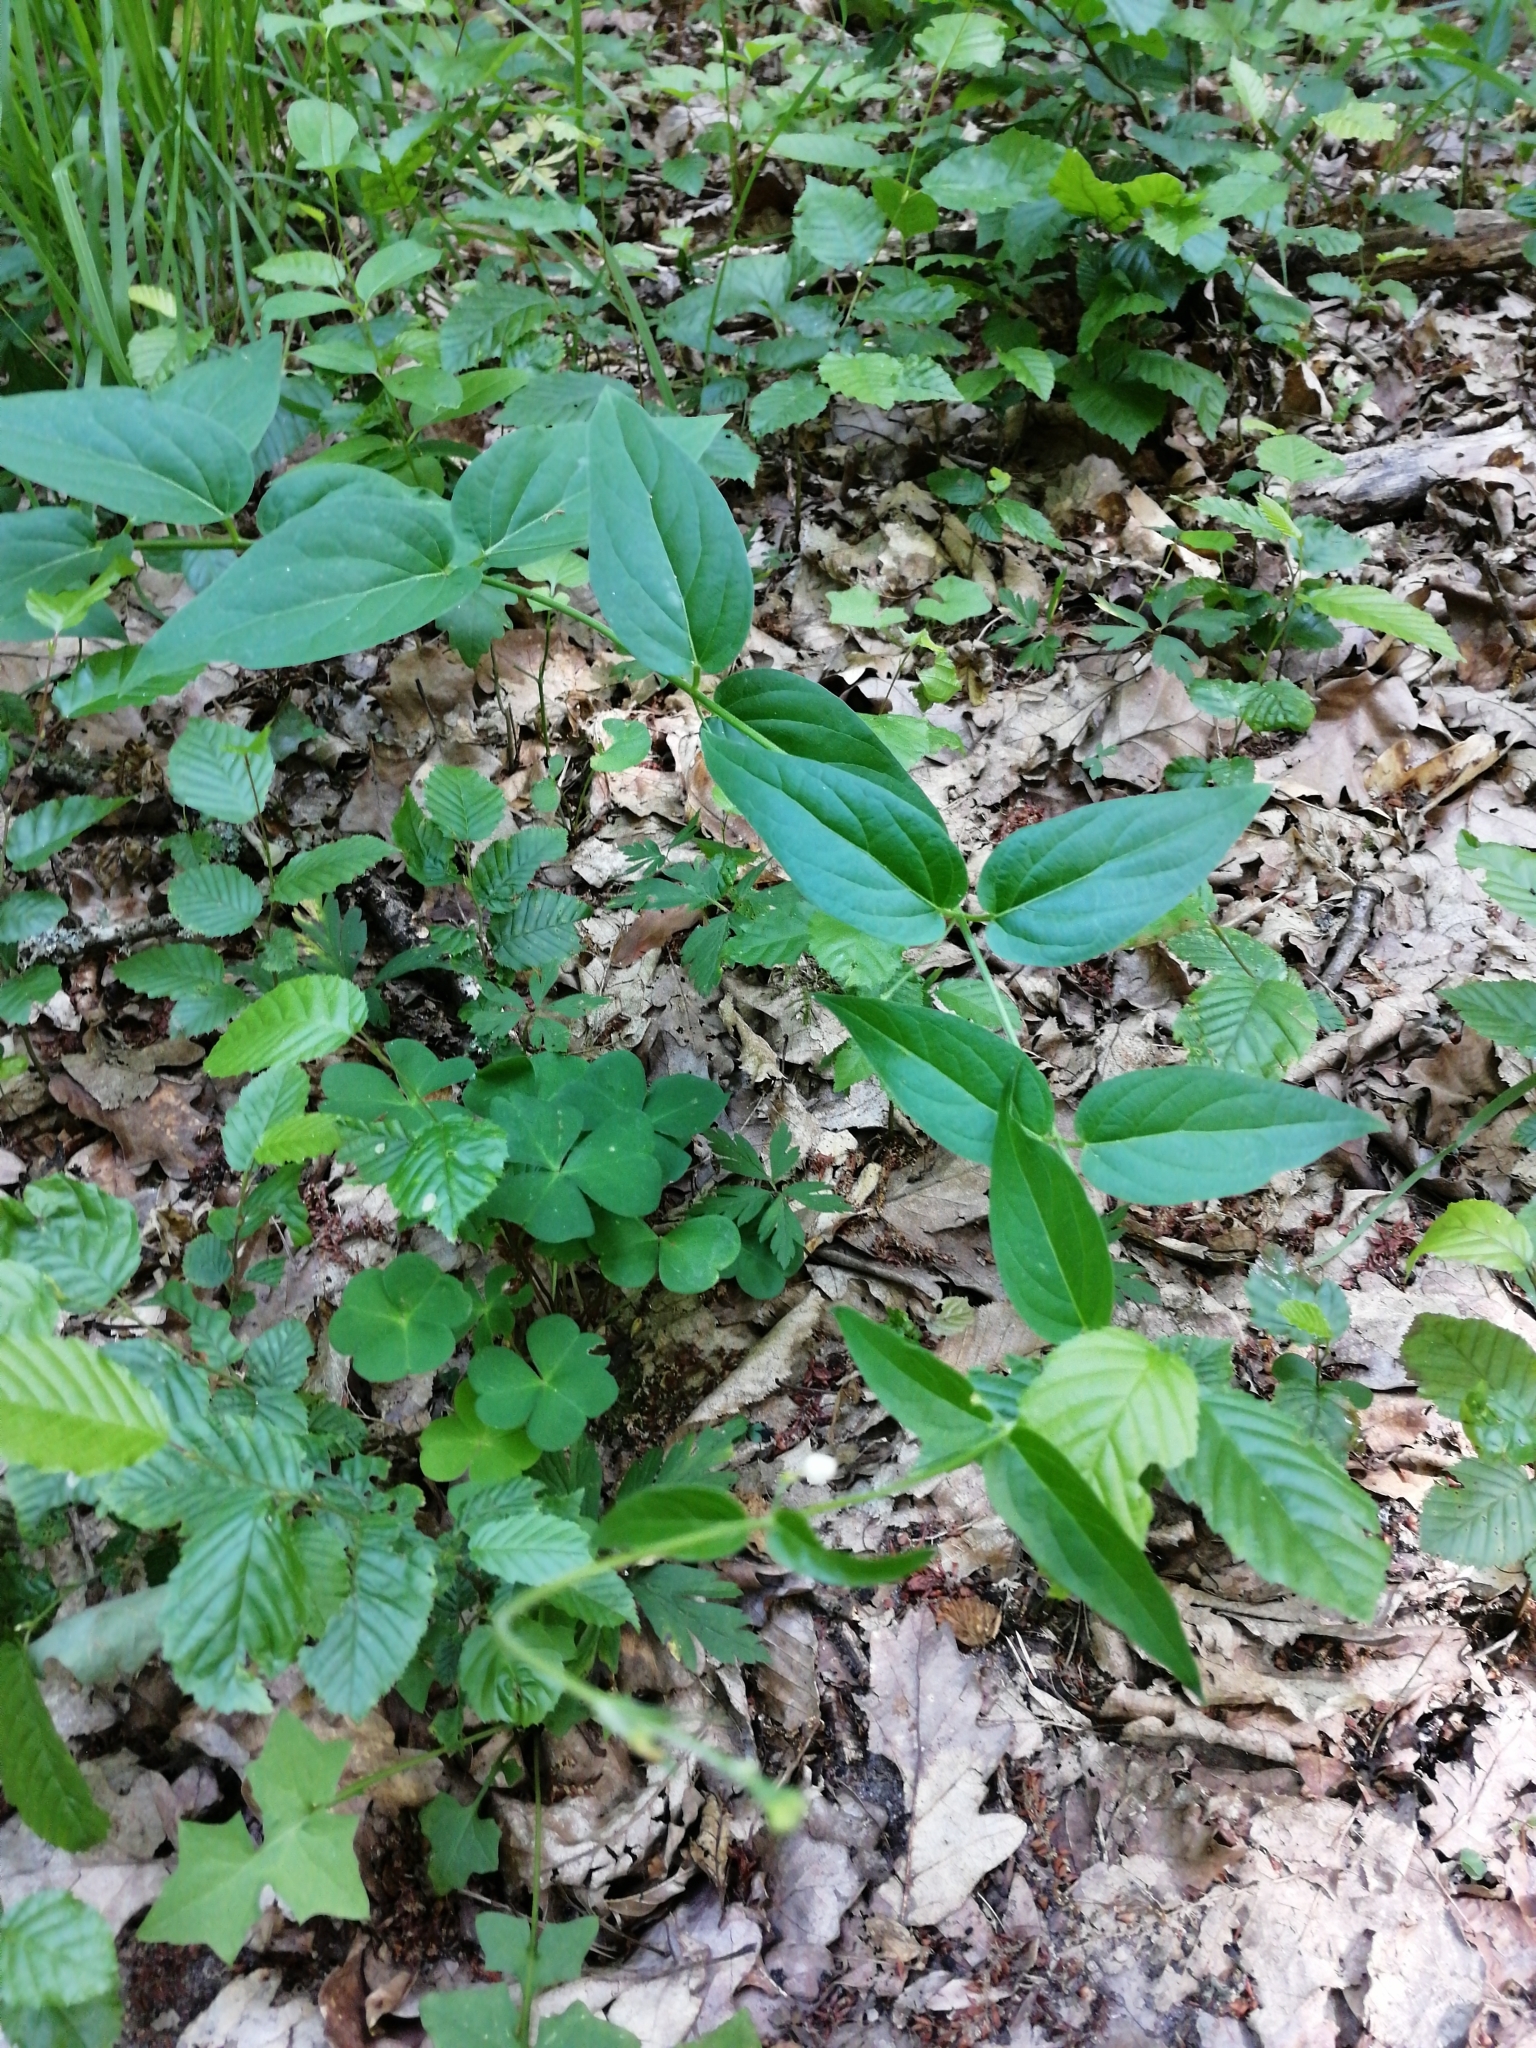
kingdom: Plantae
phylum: Tracheophyta
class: Magnoliopsida
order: Gentianales
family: Apocynaceae
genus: Vincetoxicum
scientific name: Vincetoxicum hirundinaria
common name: White swallowwort
